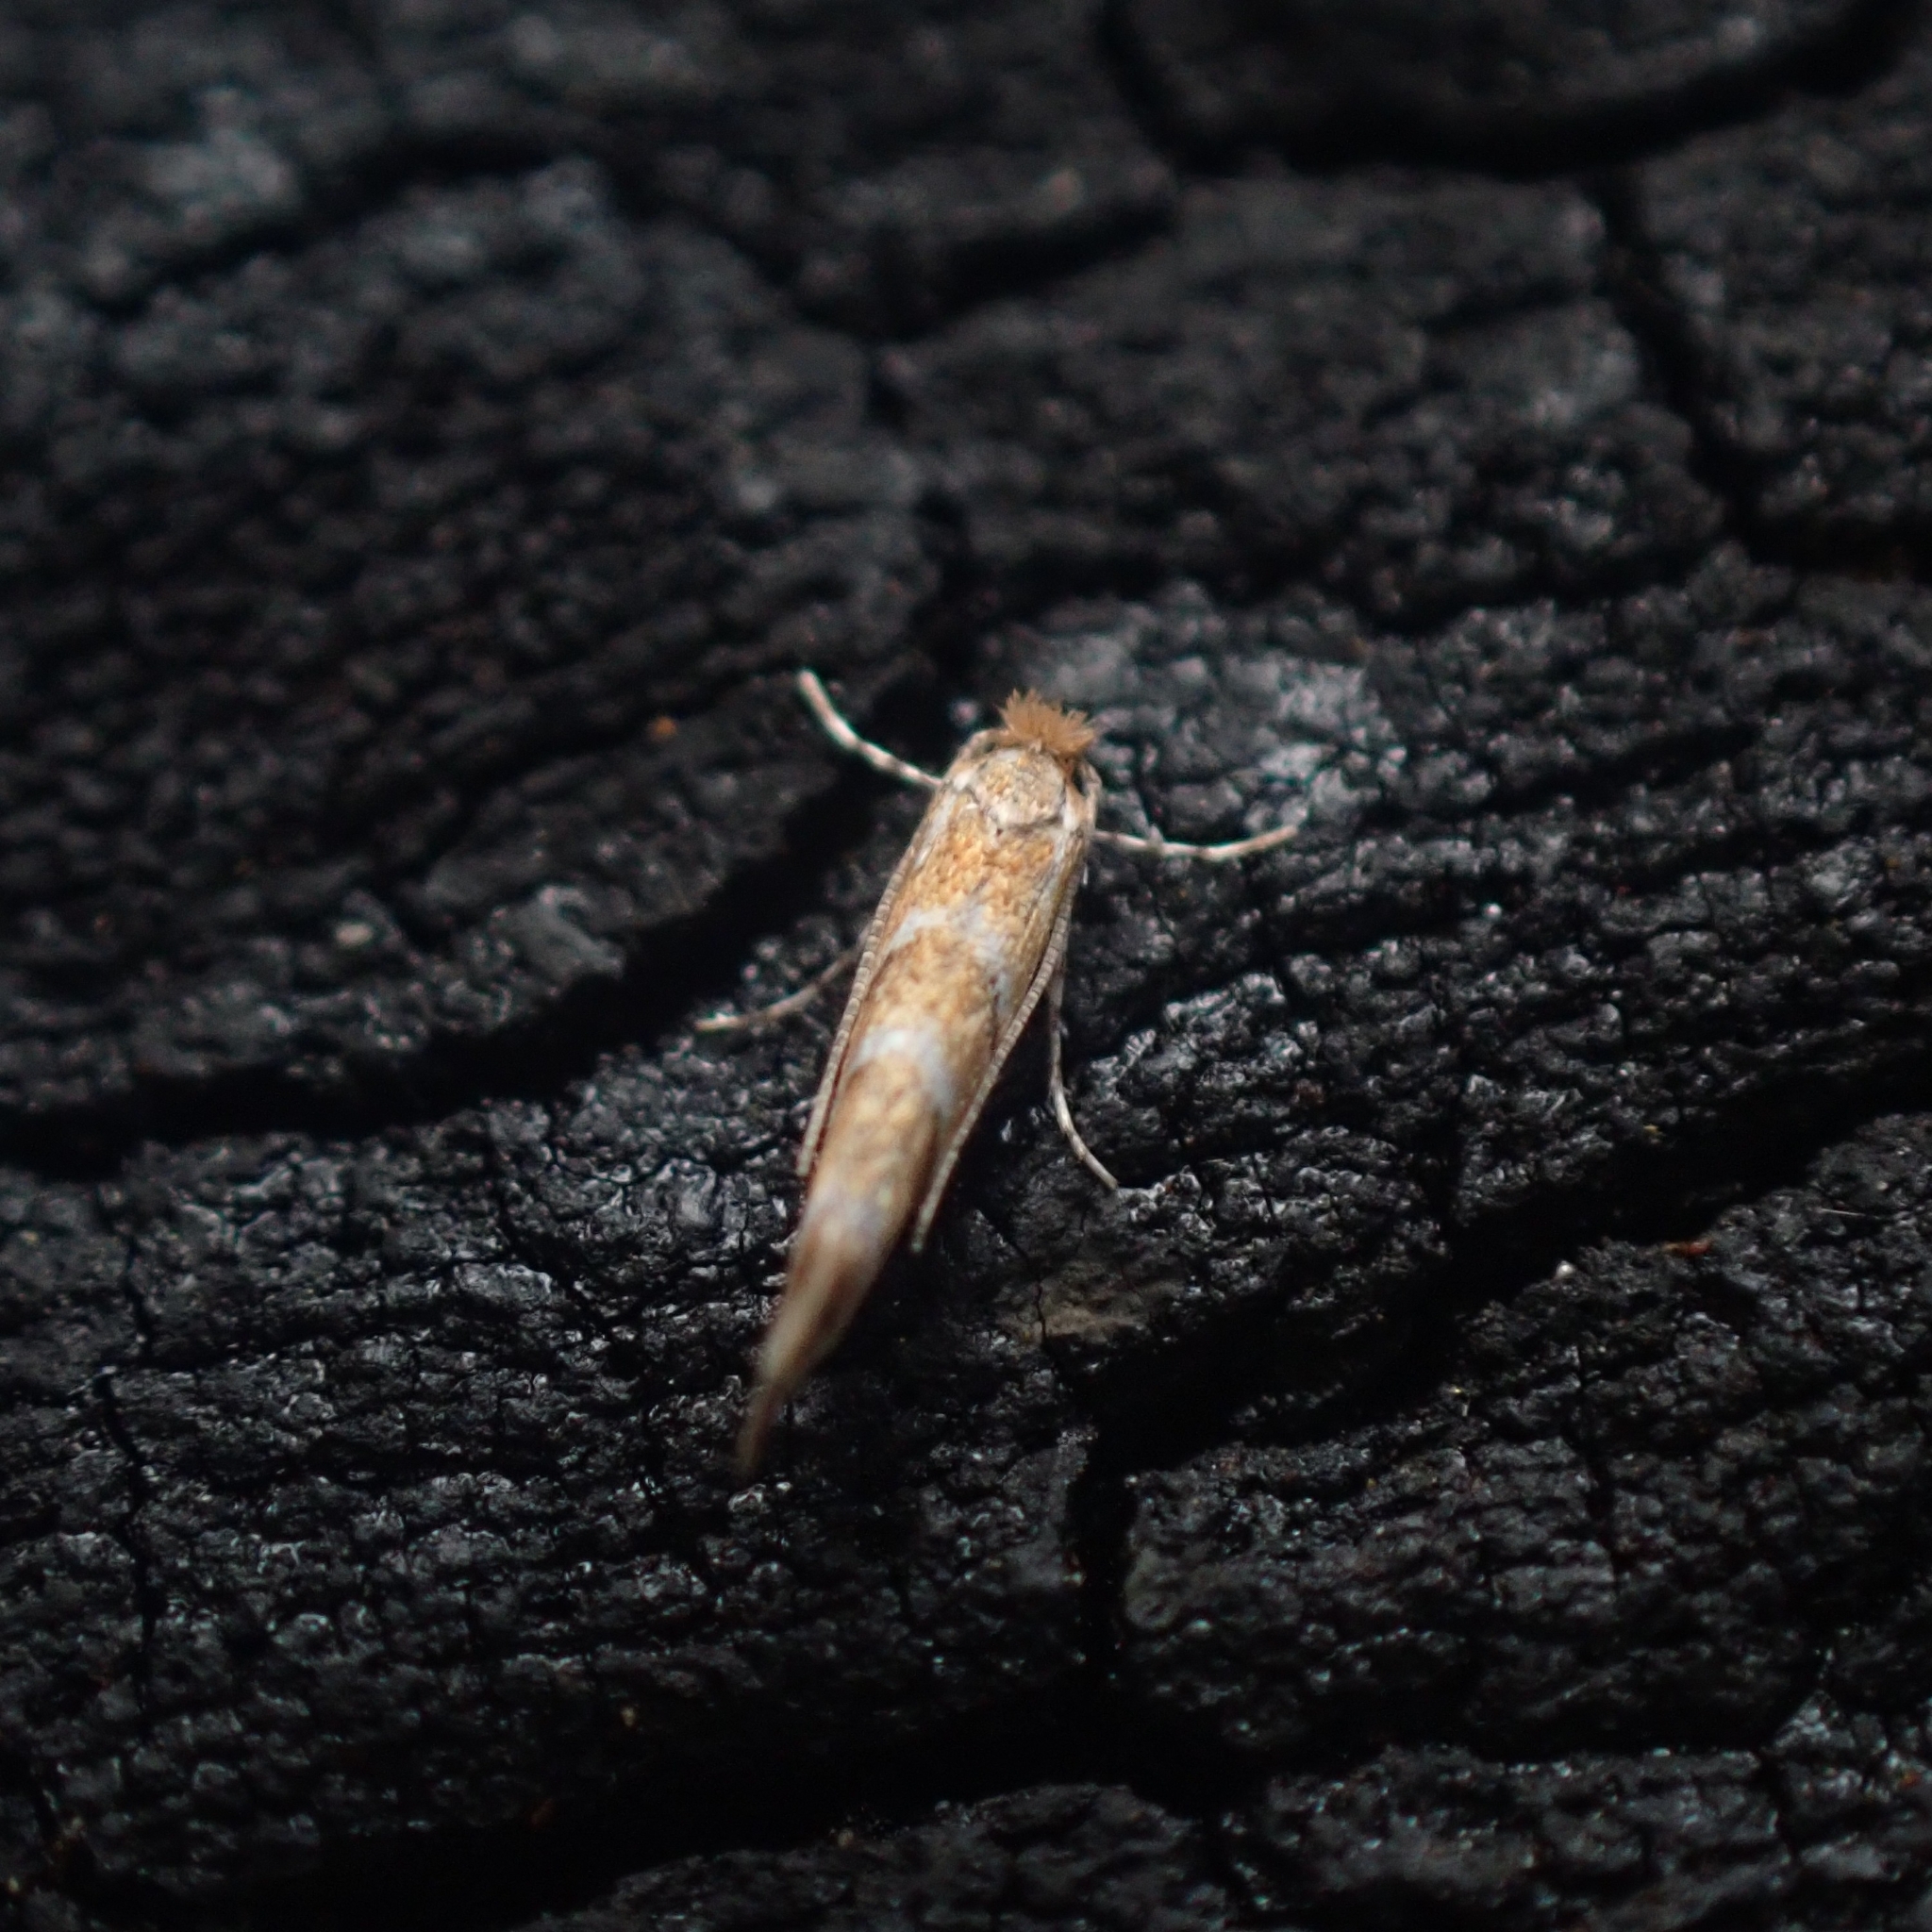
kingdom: Animalia
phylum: Arthropoda
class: Insecta
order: Lepidoptera
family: Gracillariidae
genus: Cameraria
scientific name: Cameraria ohridella
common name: Horse-chestnut leaf-miner
